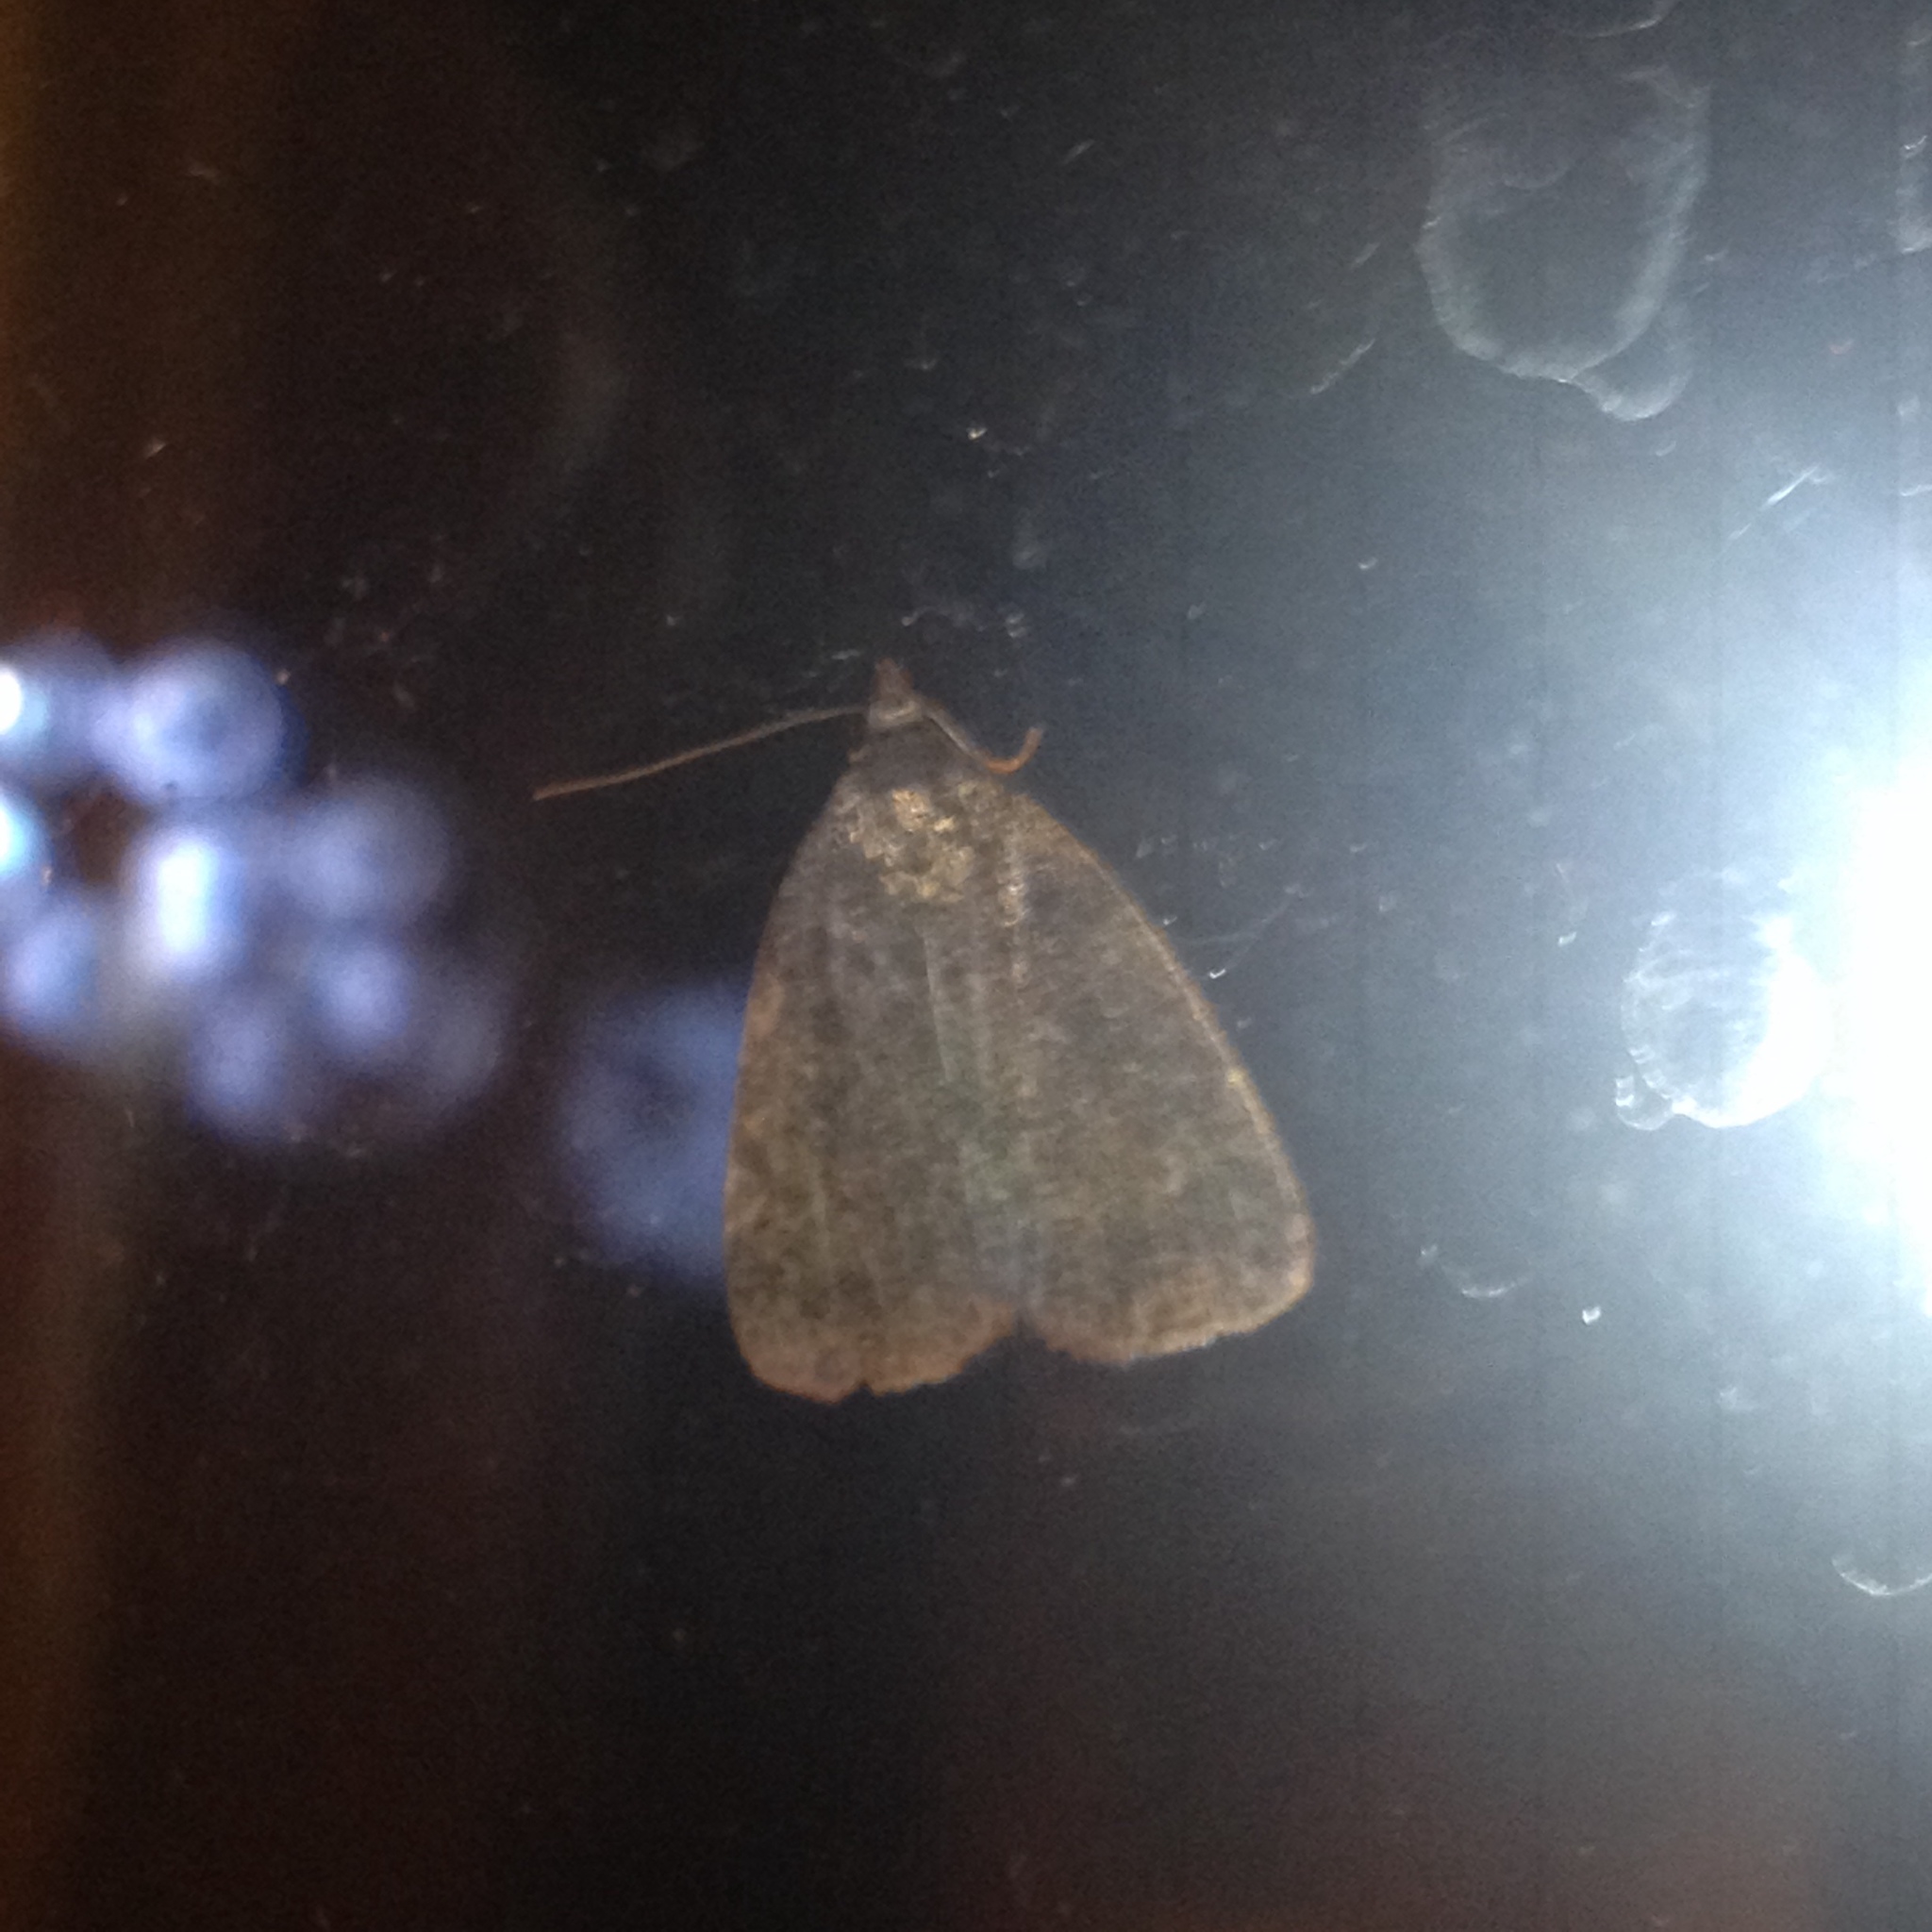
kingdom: Animalia
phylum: Arthropoda
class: Insecta
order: Lepidoptera
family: Erebidae
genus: Idia
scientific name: Idia rotundalis
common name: Rotund idia moth
